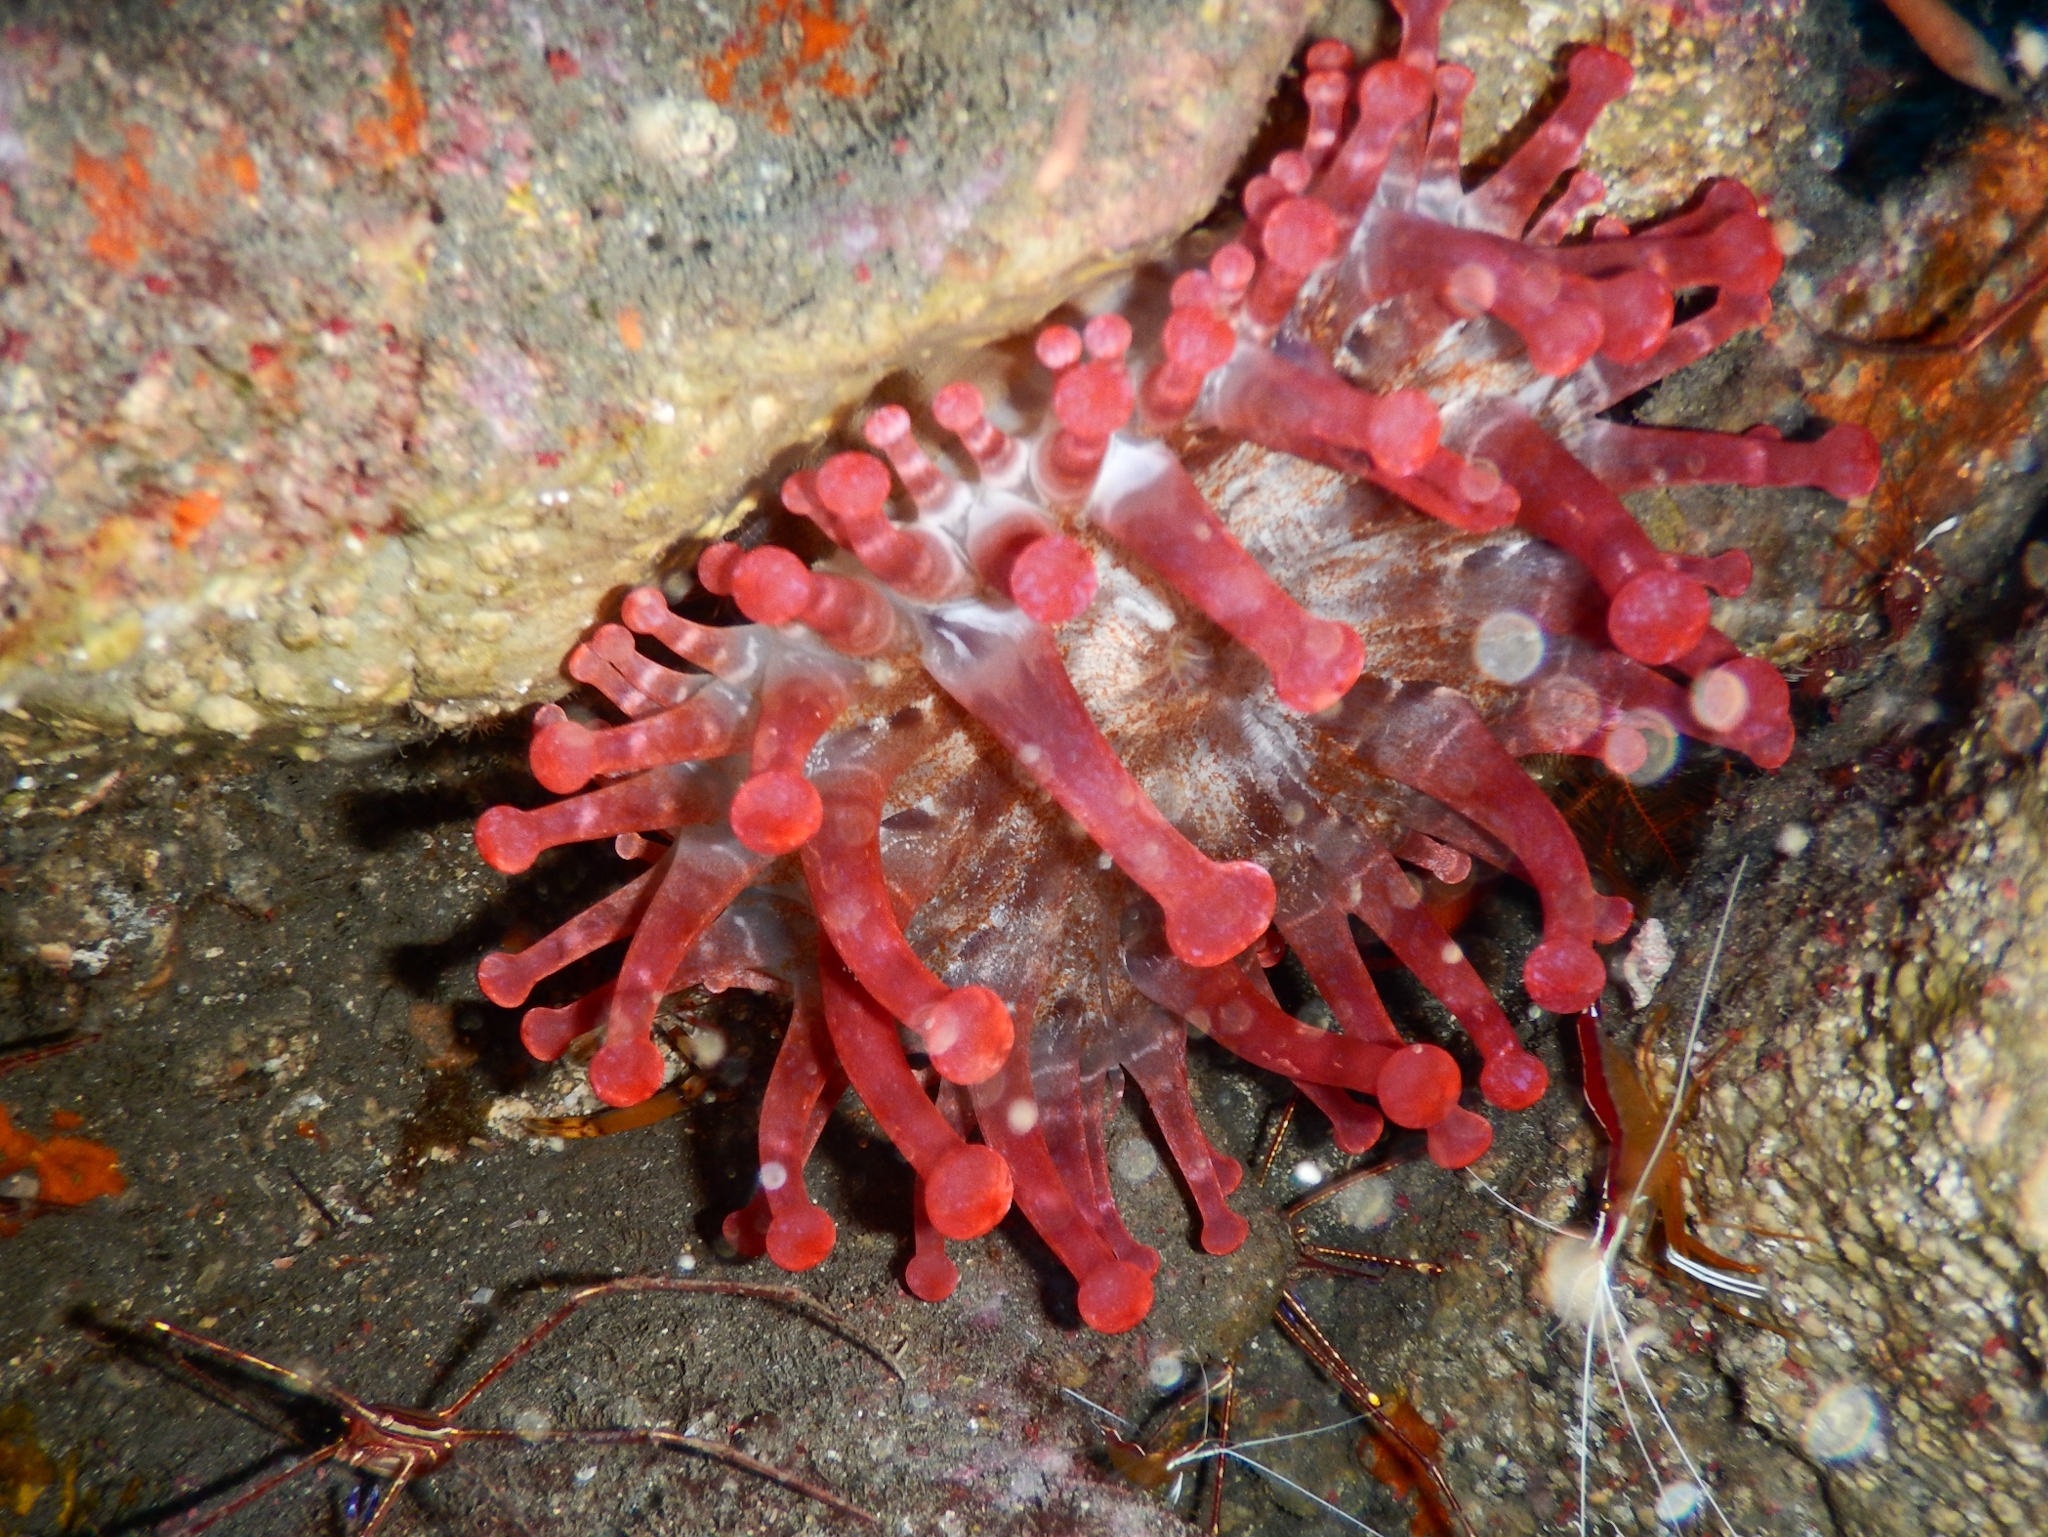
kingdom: Animalia
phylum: Cnidaria
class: Anthozoa
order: Actiniaria
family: Andvakiidae
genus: Telmatactis
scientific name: Telmatactis cricoides
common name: Blunt-tentacled anemone
